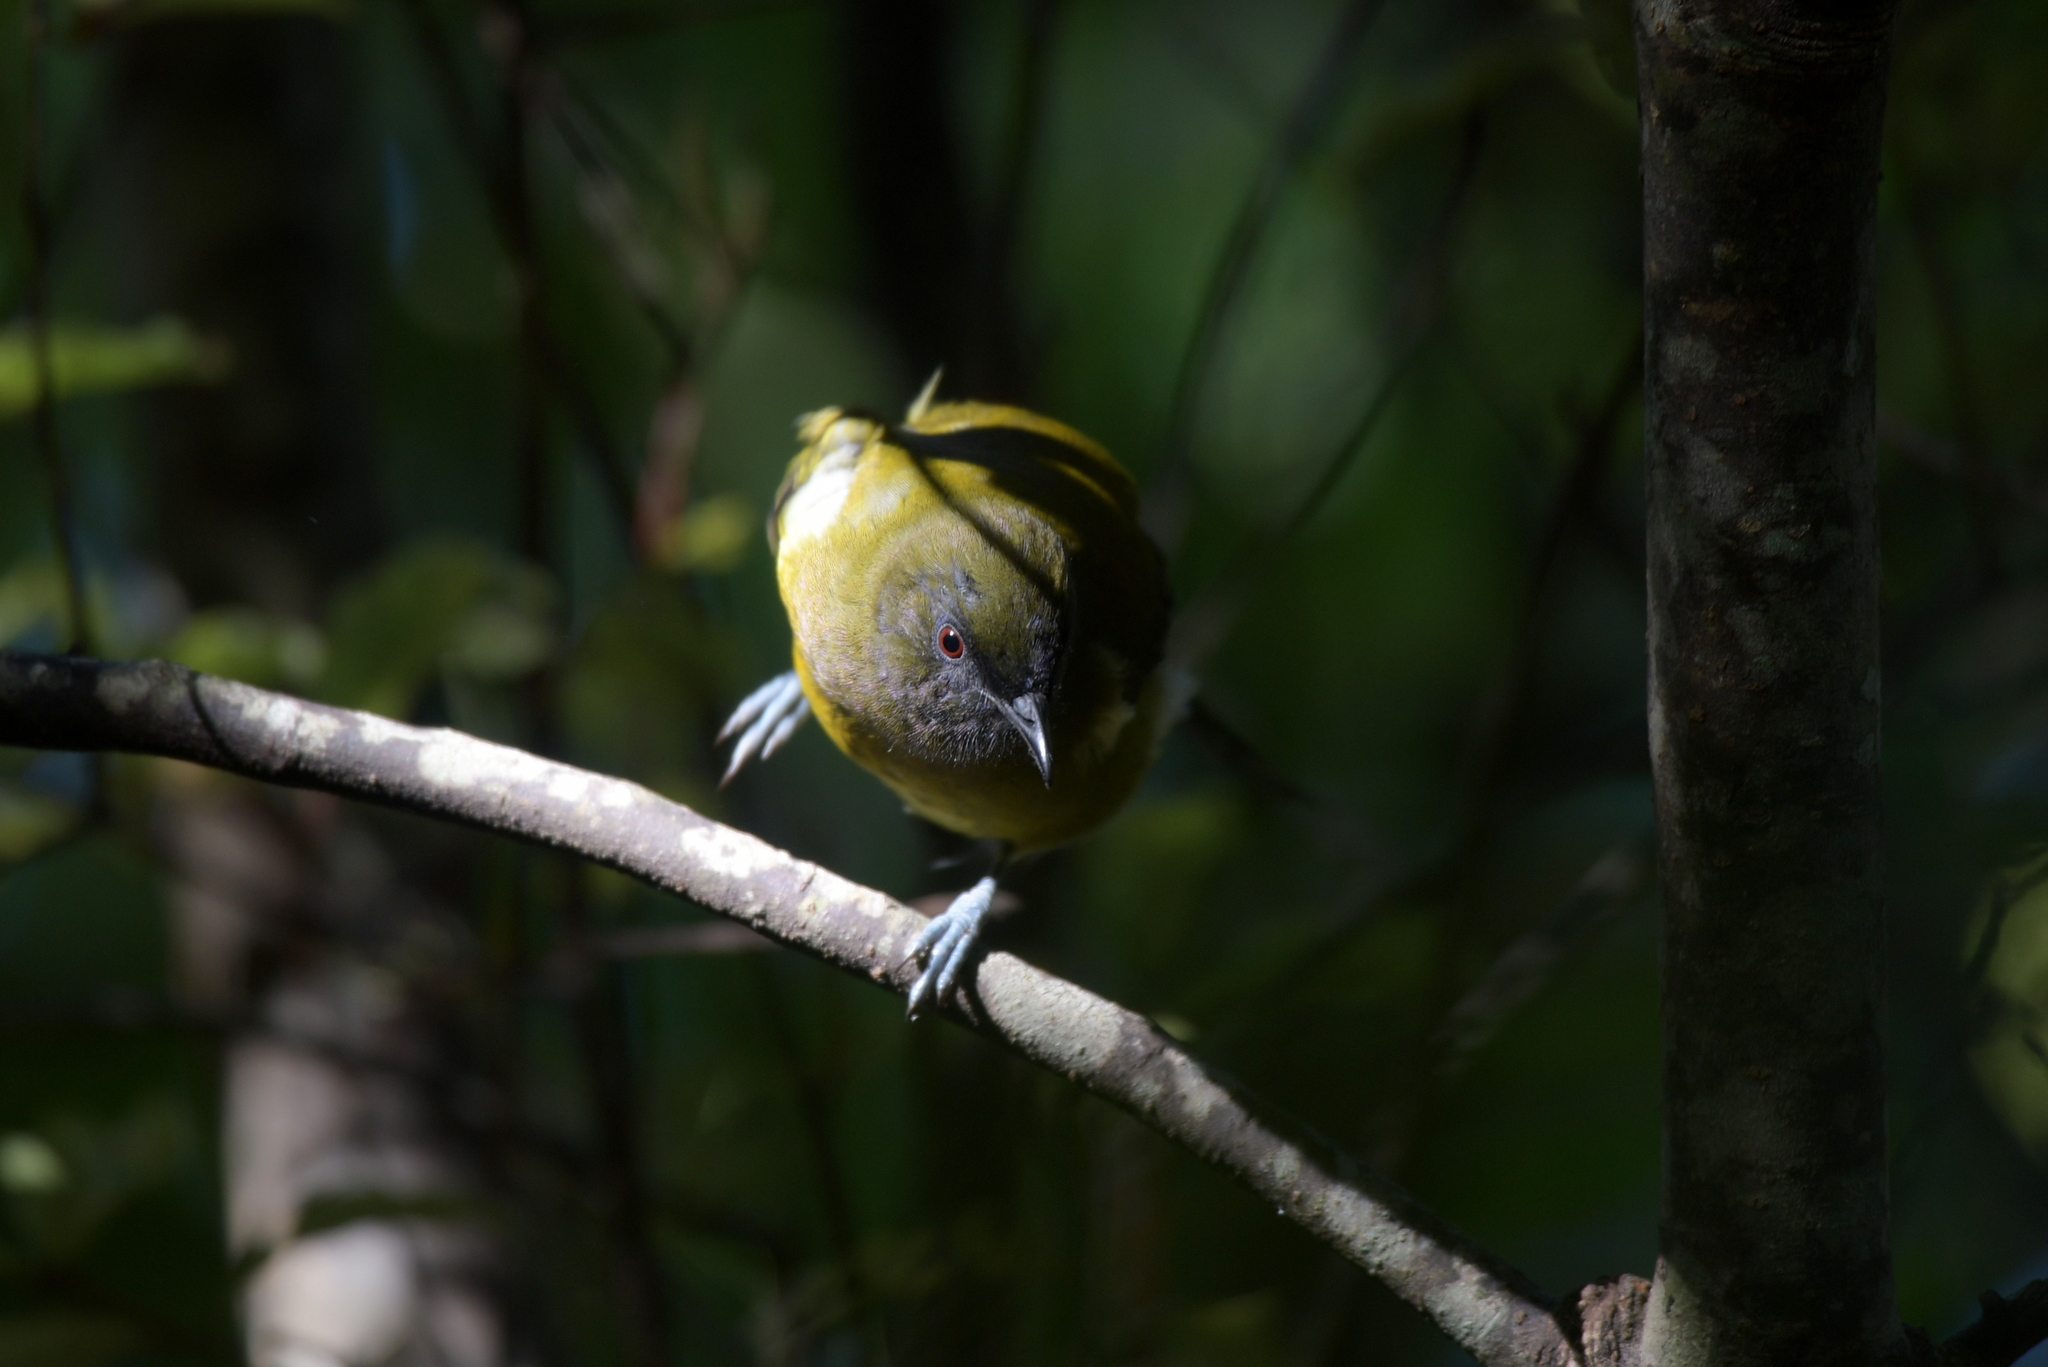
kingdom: Animalia
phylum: Chordata
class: Aves
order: Passeriformes
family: Meliphagidae
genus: Anthornis
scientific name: Anthornis melanura
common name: New zealand bellbird
